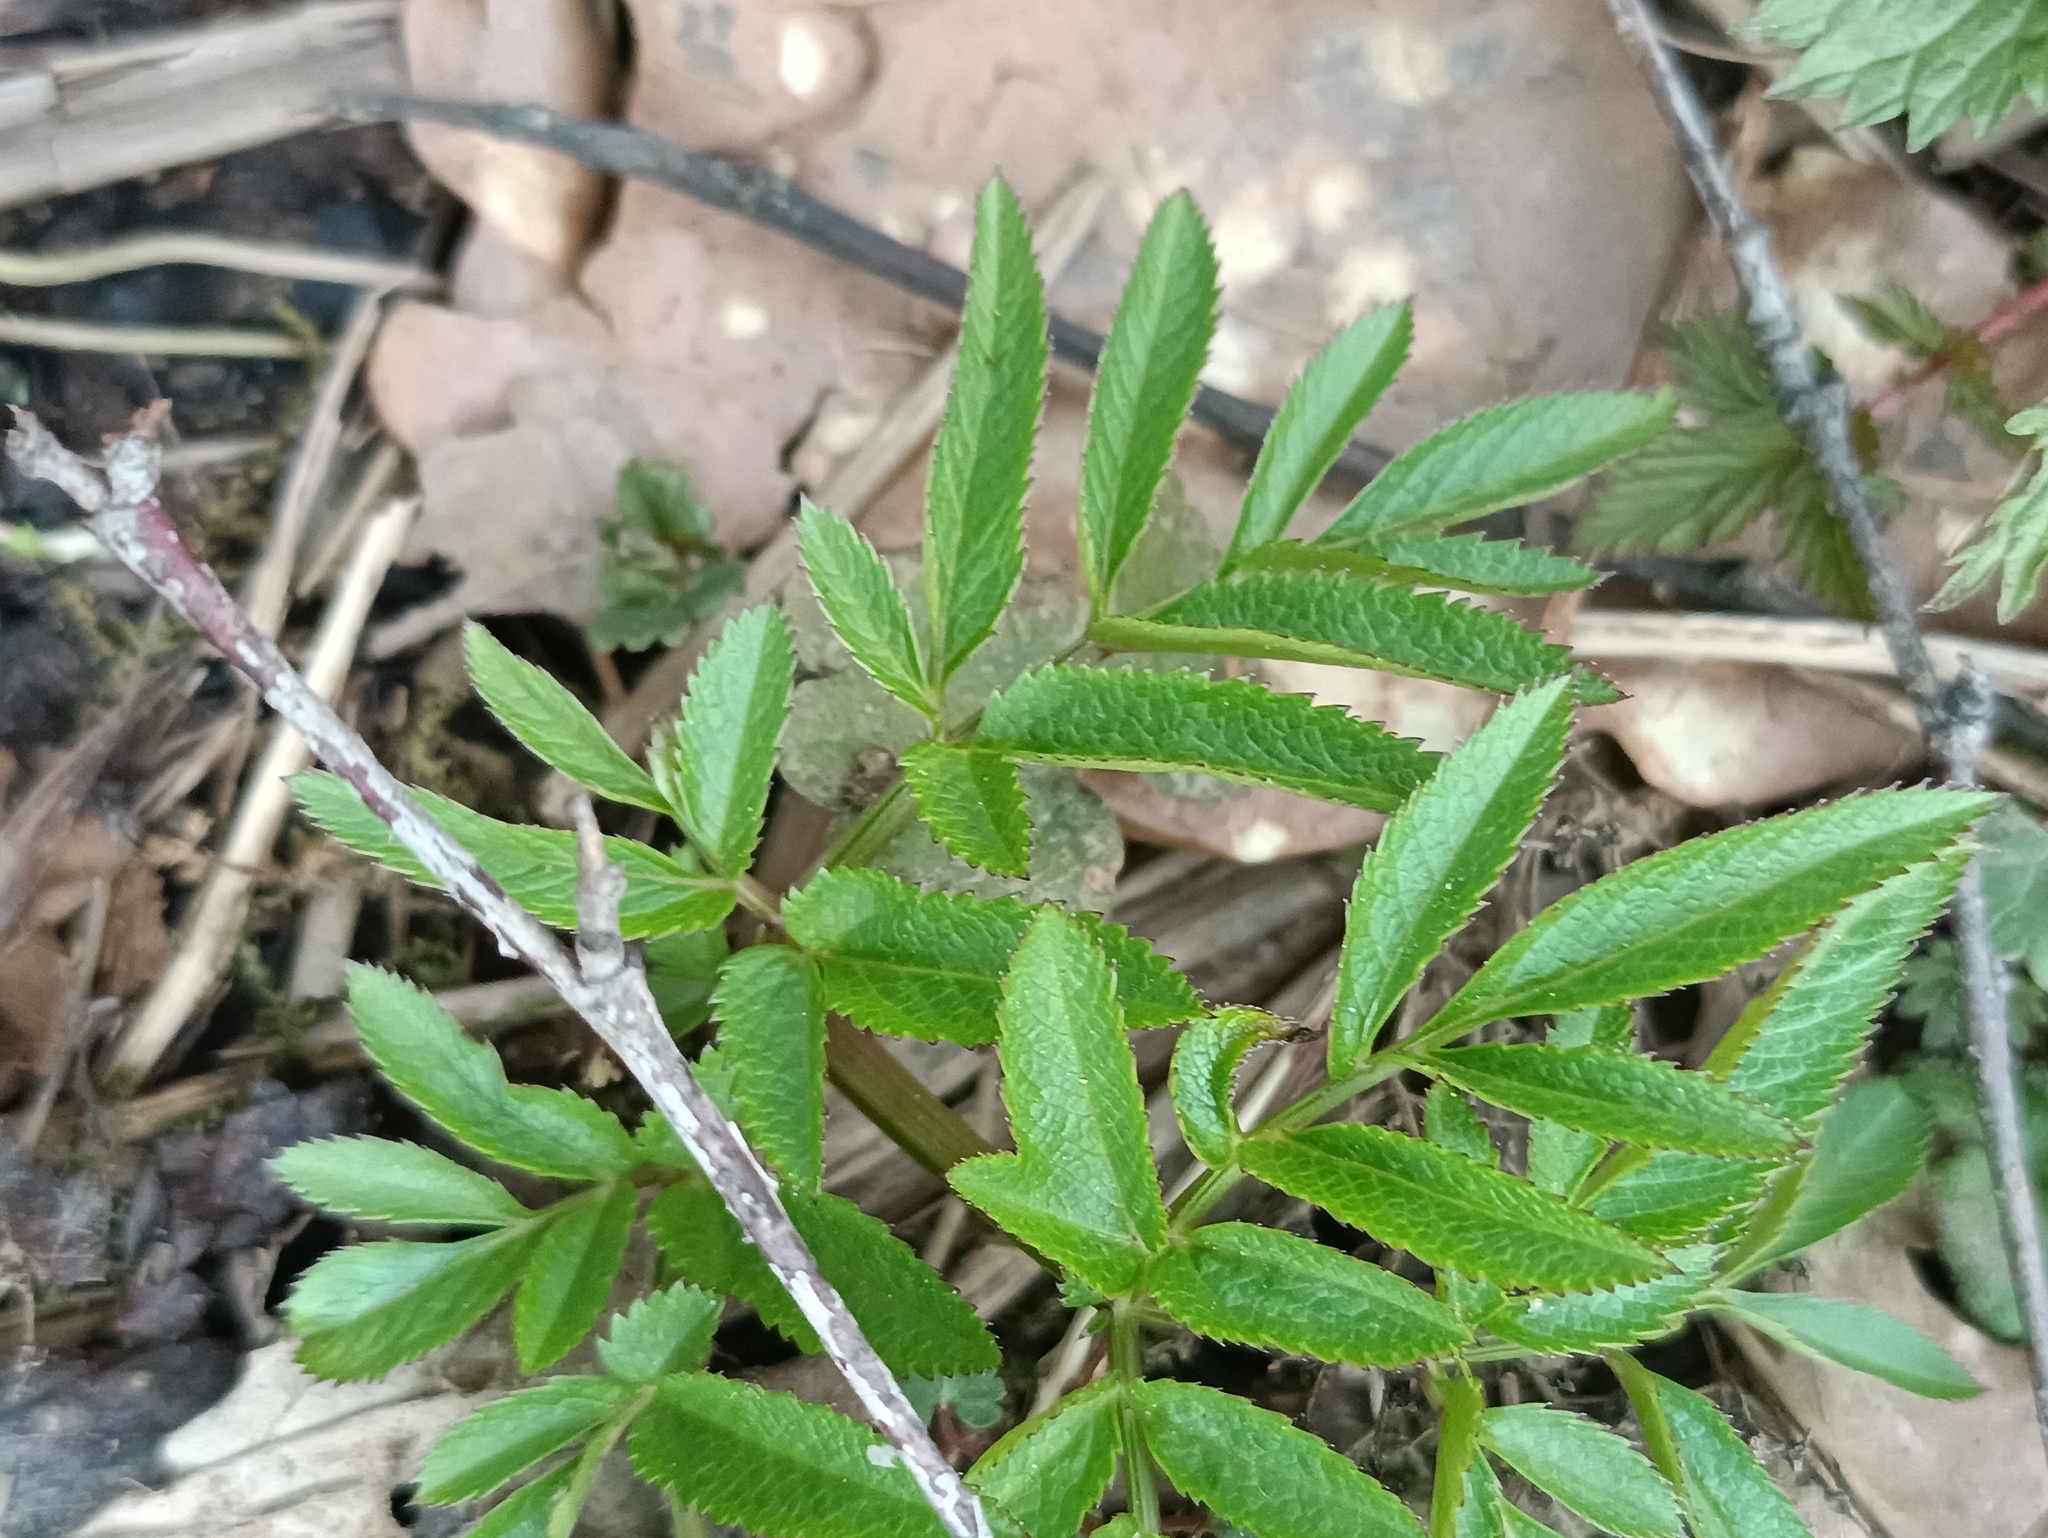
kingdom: Plantae
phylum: Tracheophyta
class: Magnoliopsida
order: Apiales
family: Apiaceae
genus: Angelica
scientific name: Angelica sylvestris
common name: Wild angelica
